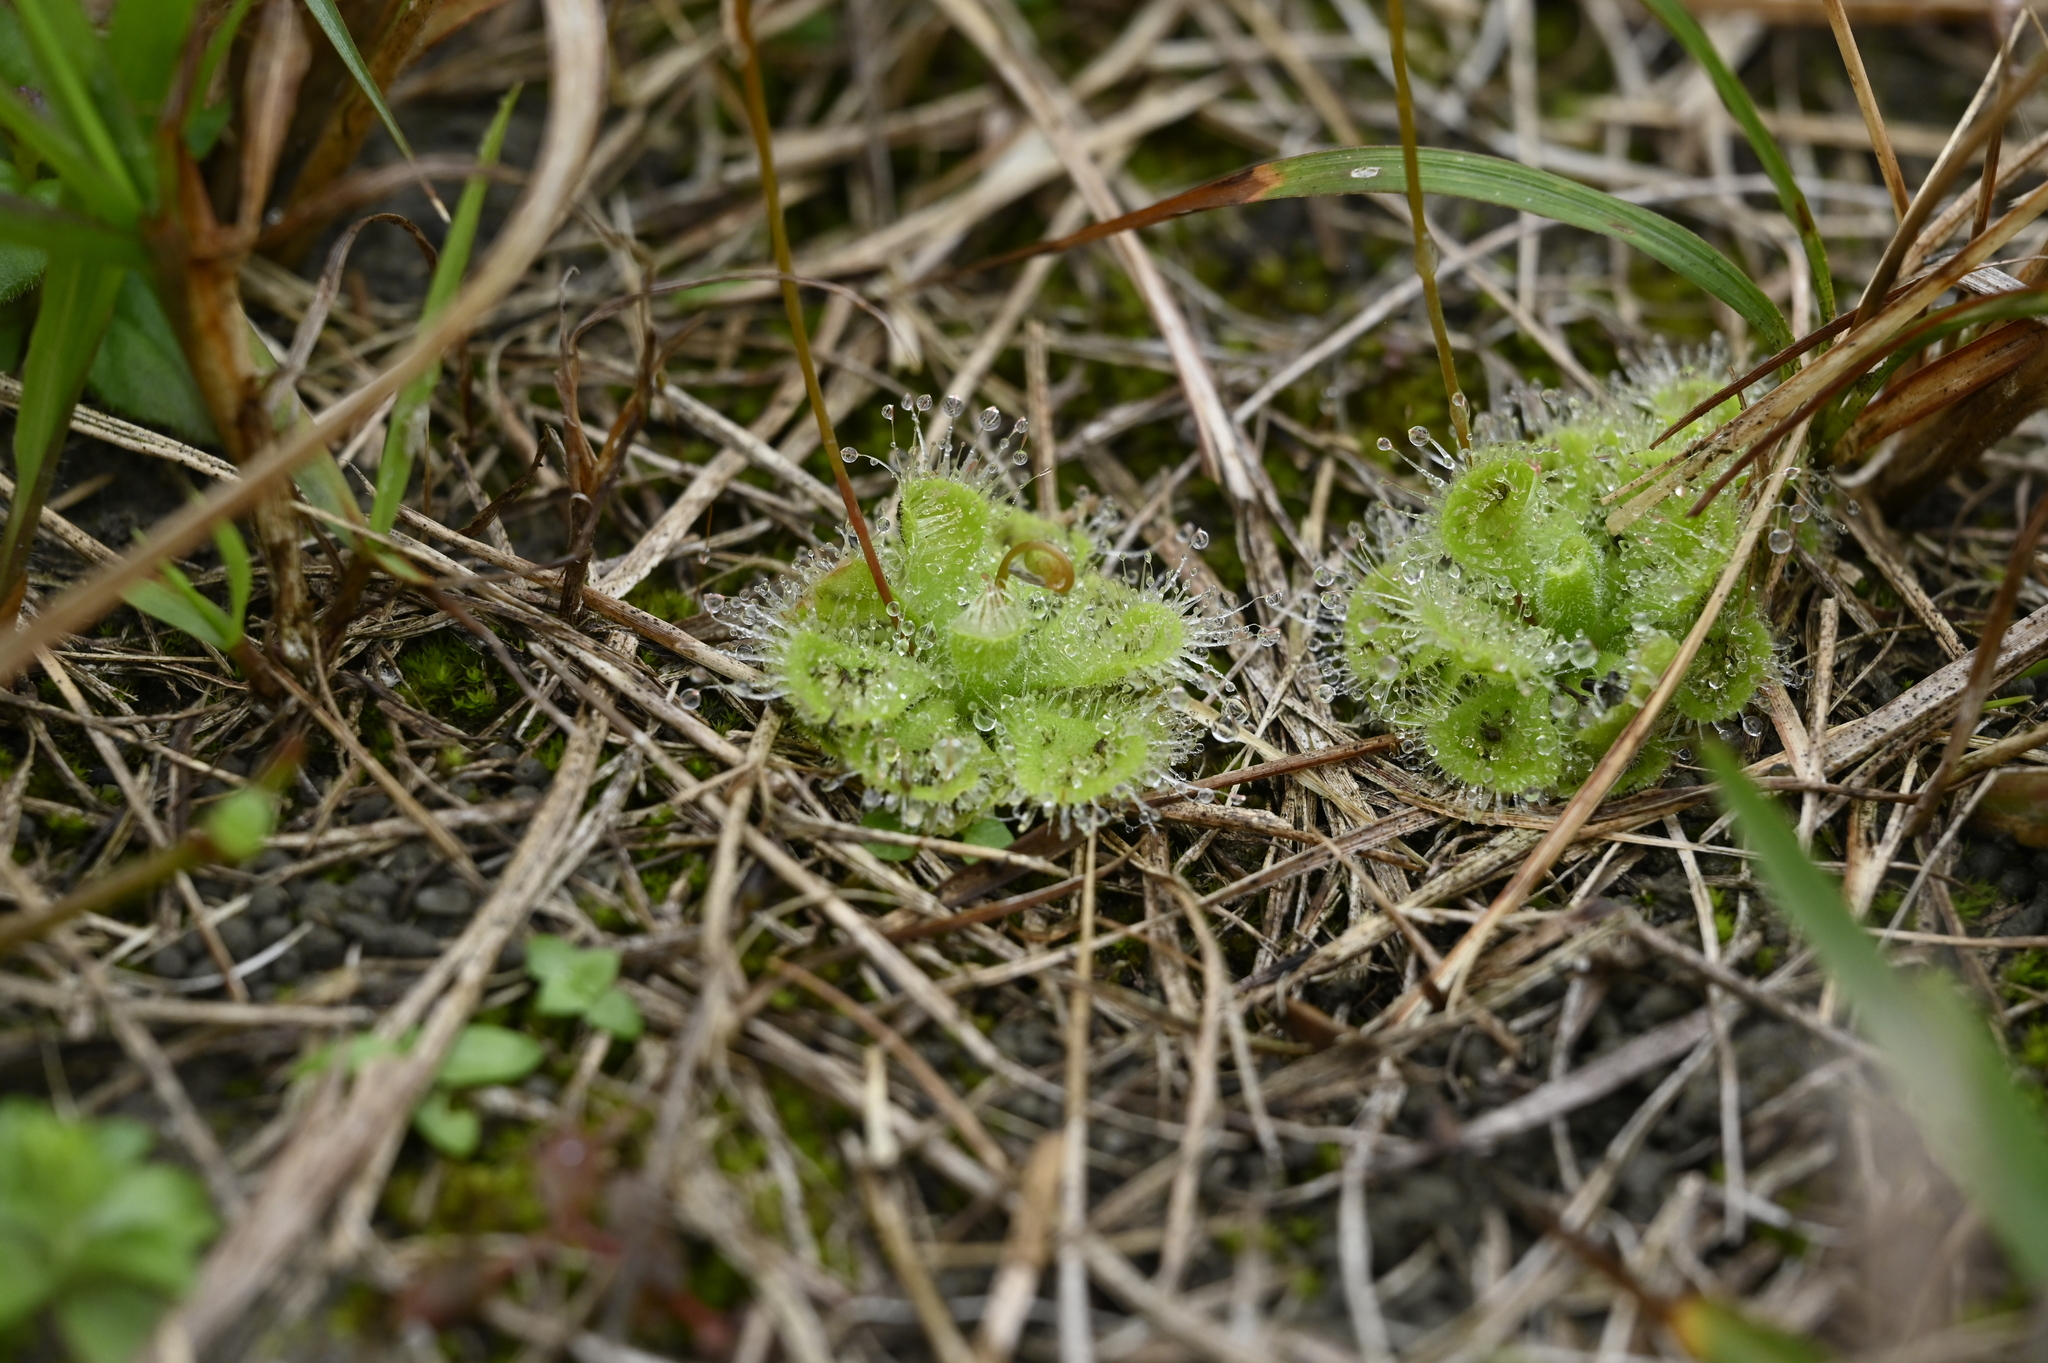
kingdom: Plantae
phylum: Tracheophyta
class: Magnoliopsida
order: Caryophyllales
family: Droseraceae
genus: Drosera
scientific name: Drosera spatulata
